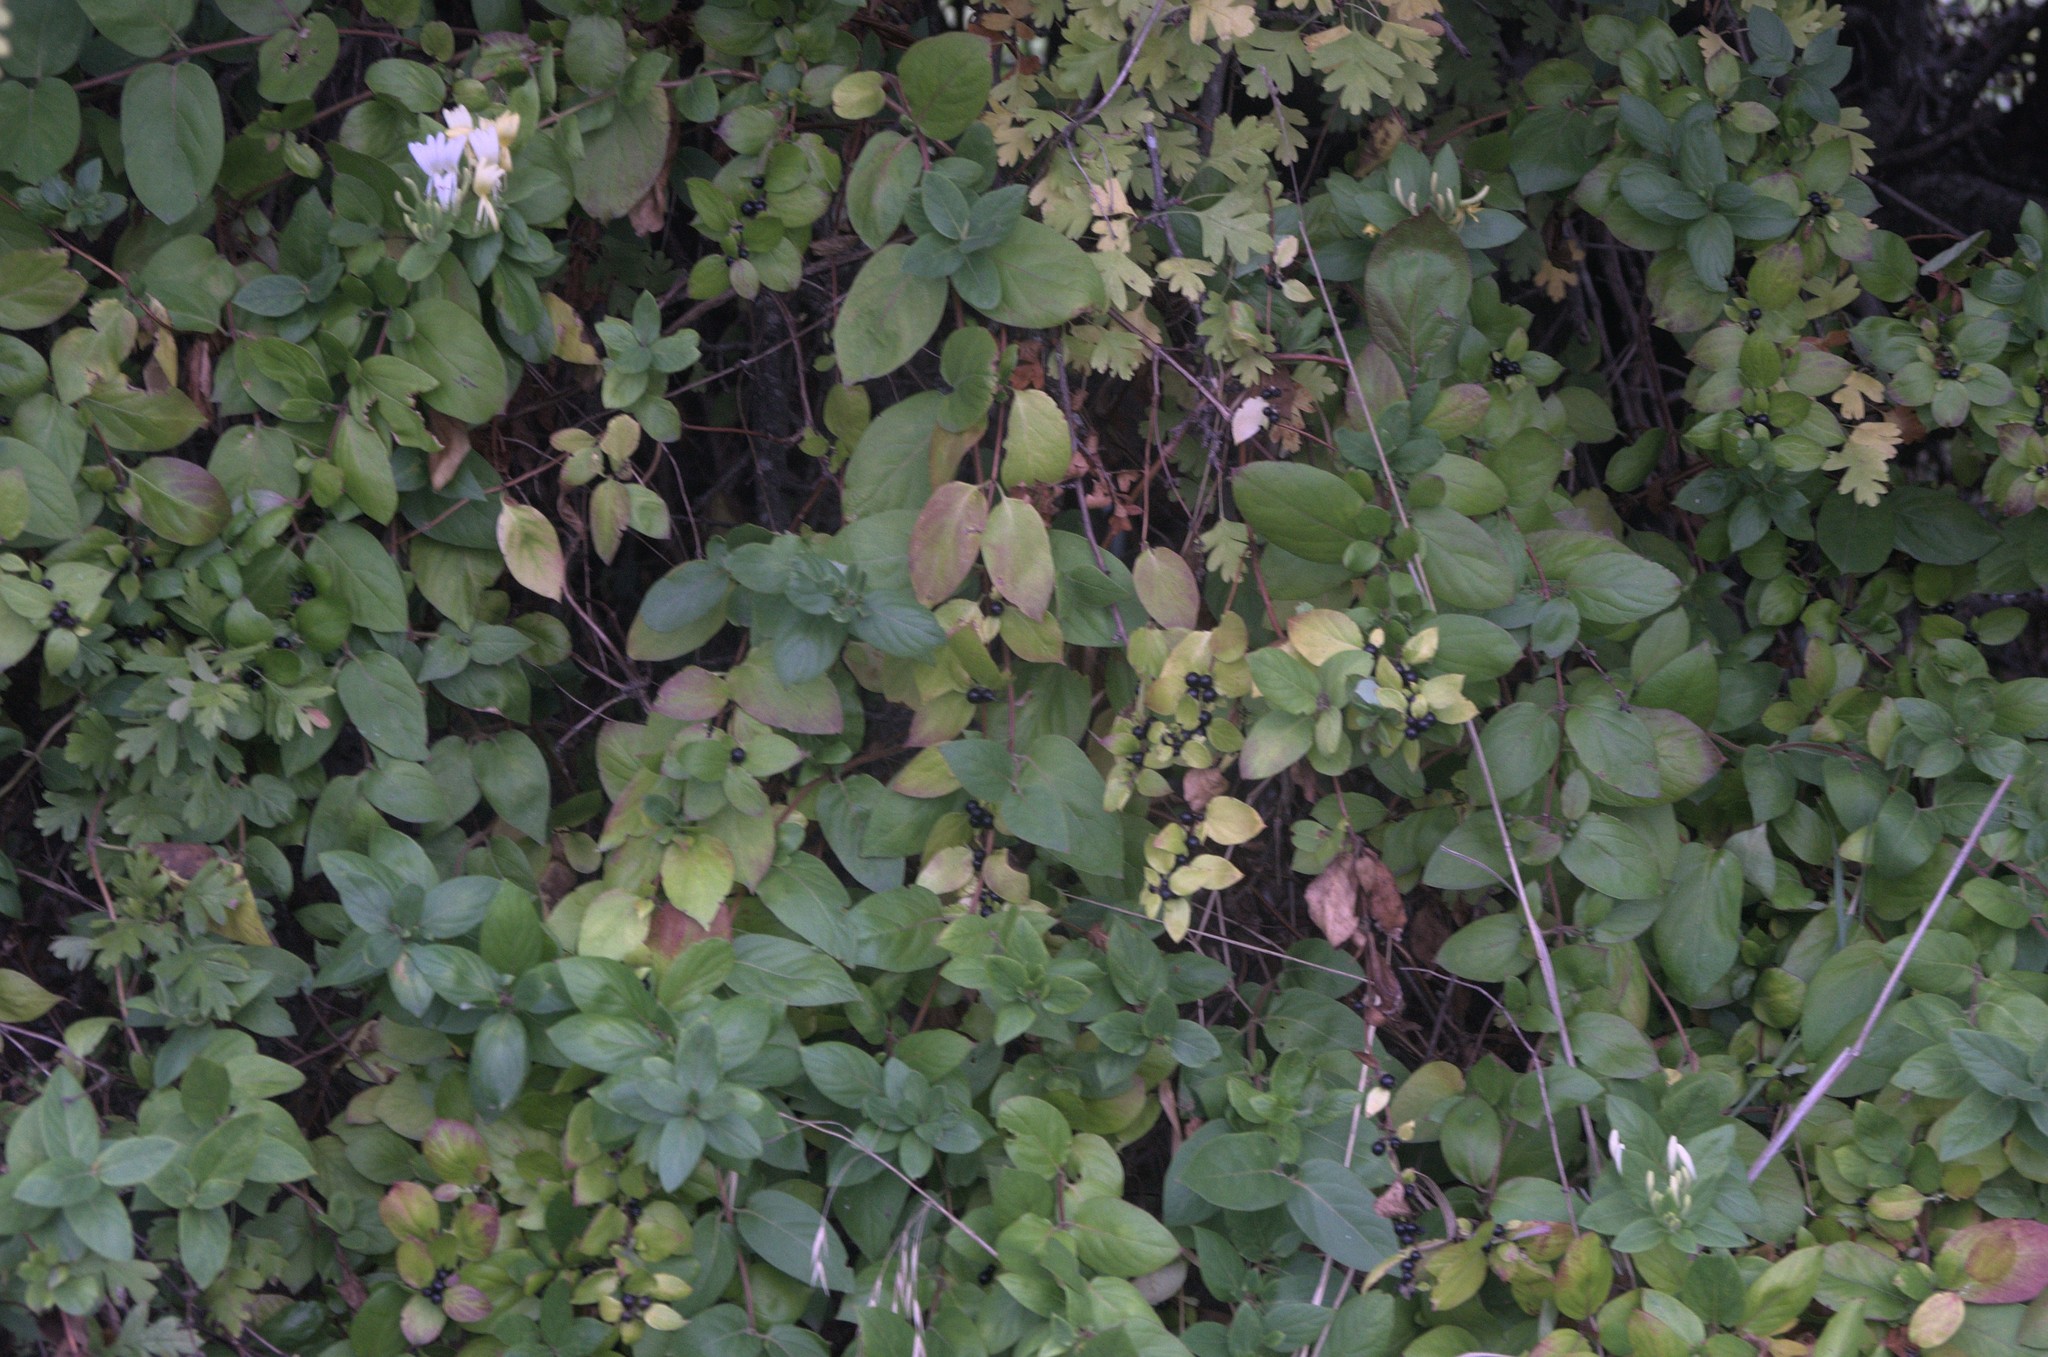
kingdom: Plantae
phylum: Tracheophyta
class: Magnoliopsida
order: Rosales
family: Rosaceae
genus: Crataegus
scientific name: Crataegus monogyna
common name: Hawthorn
